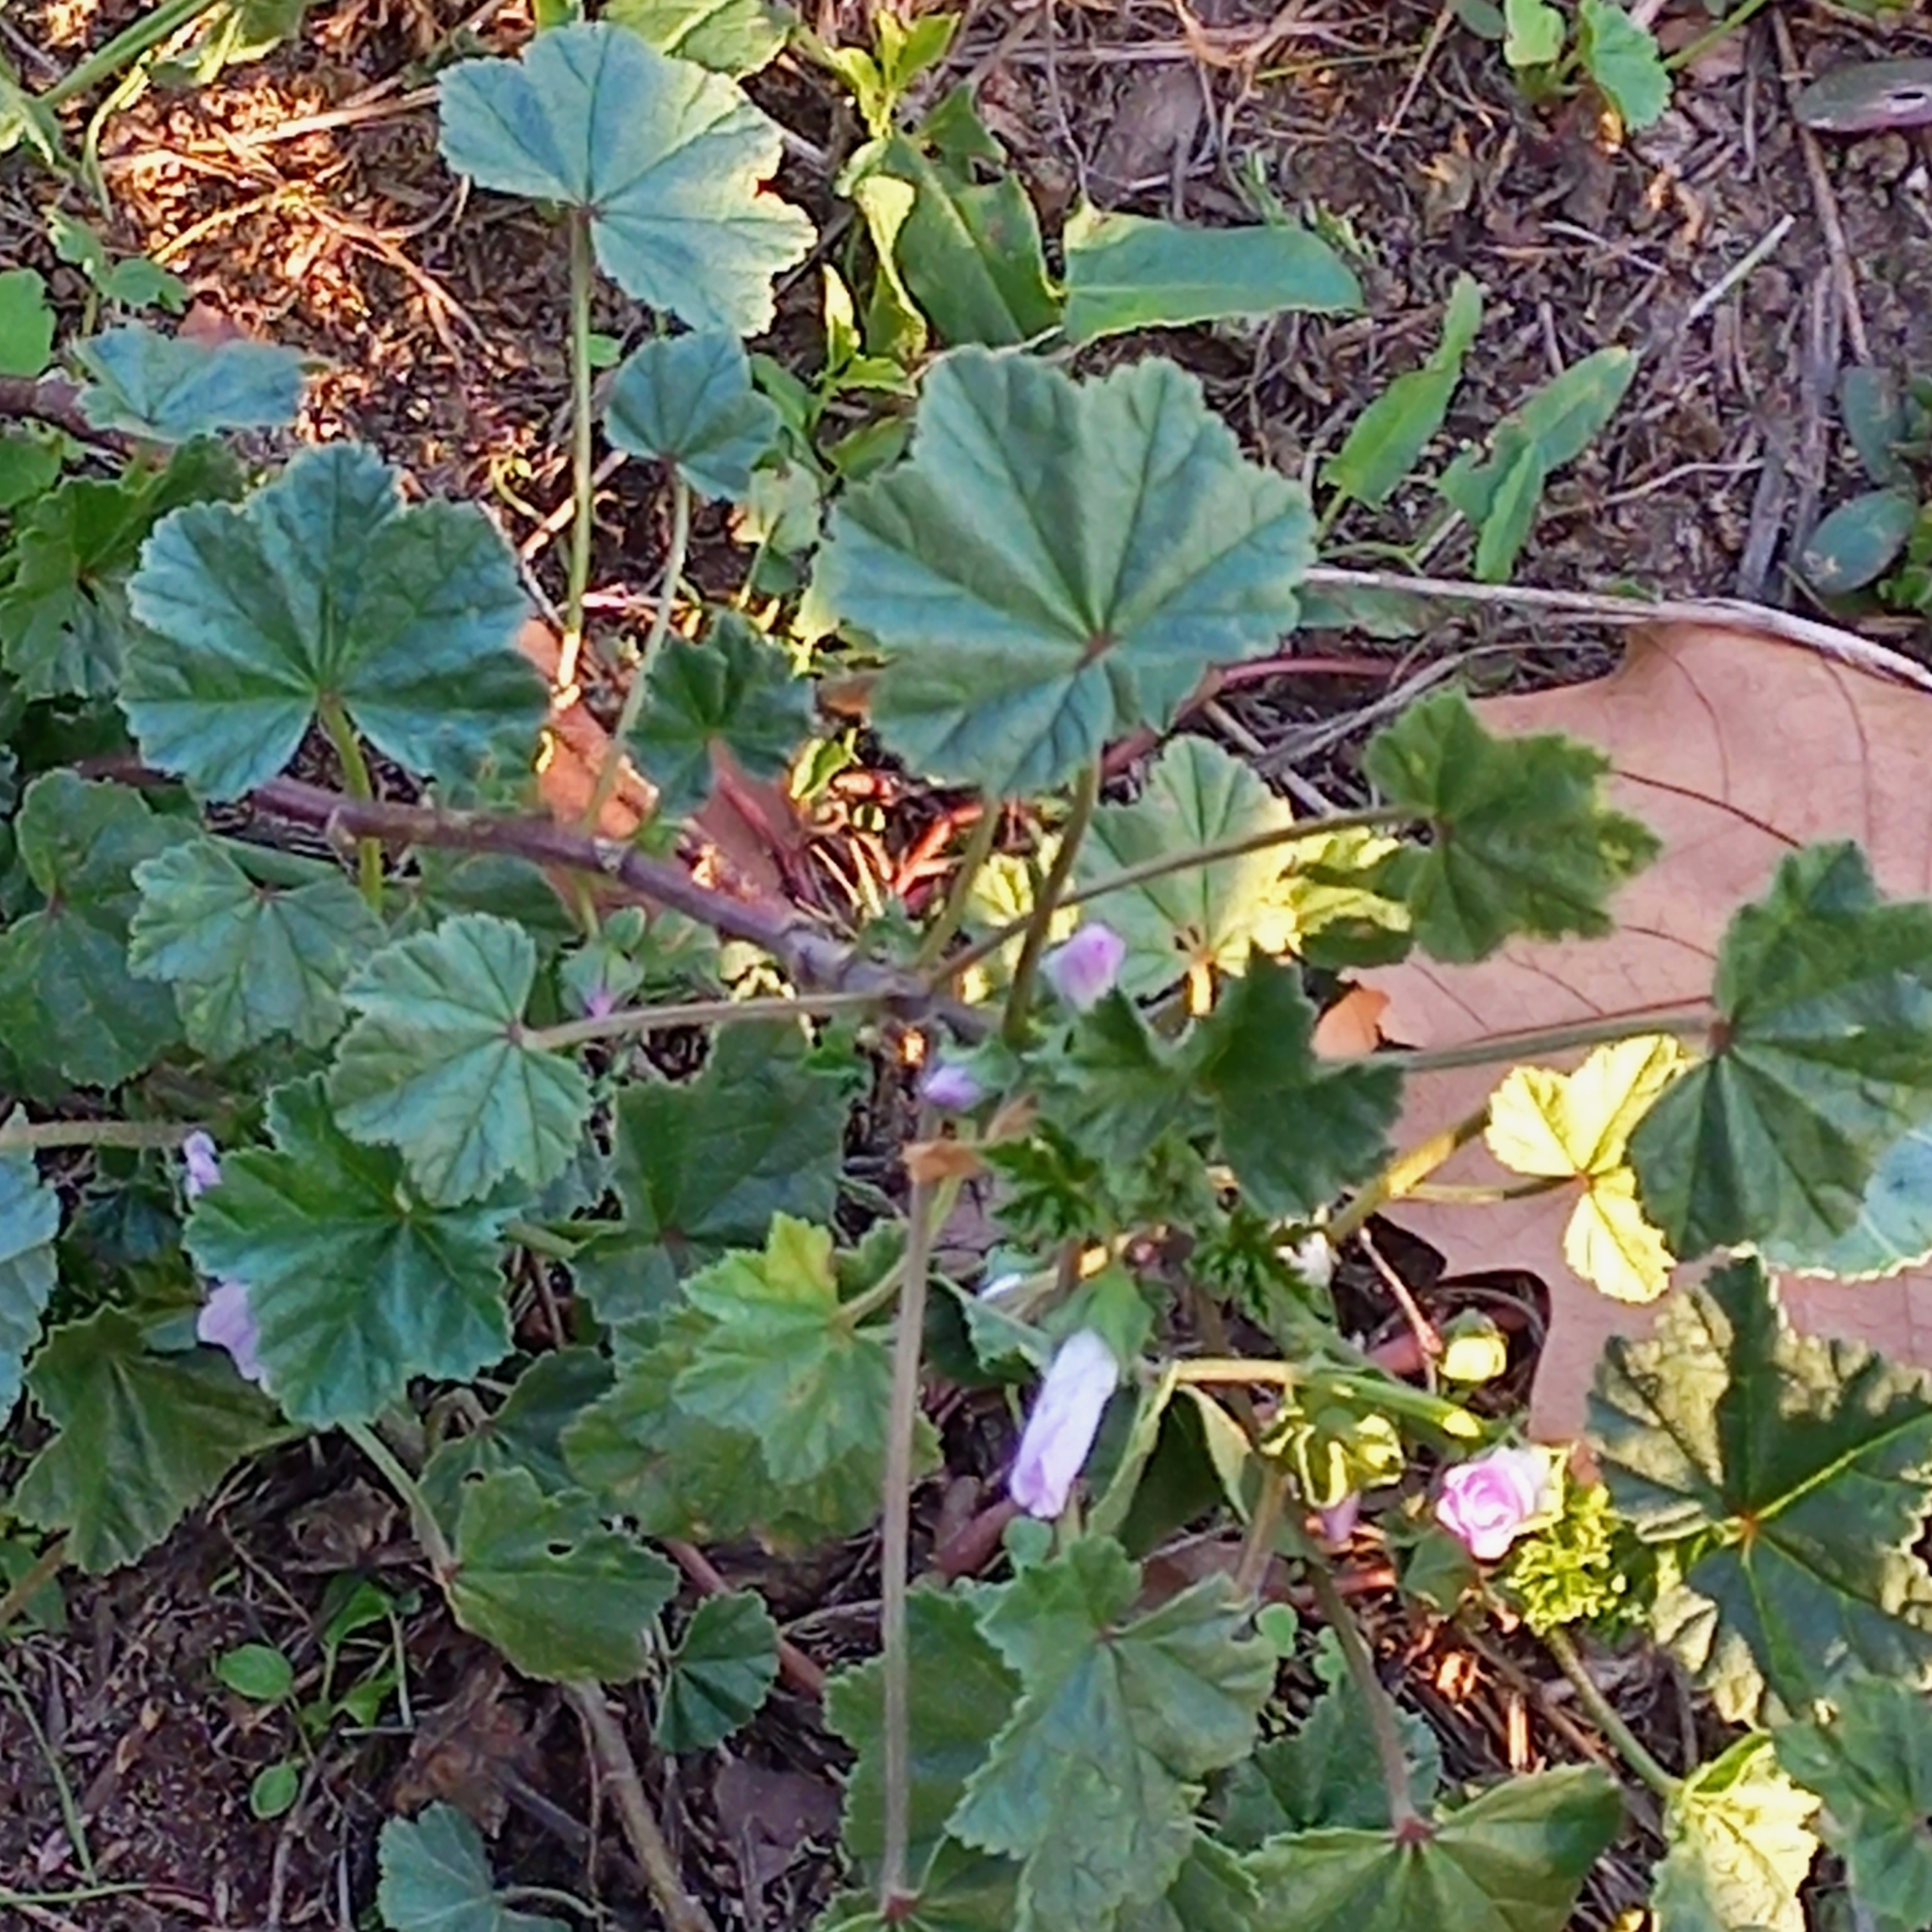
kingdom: Plantae
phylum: Tracheophyta
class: Magnoliopsida
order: Malvales
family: Malvaceae
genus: Malva
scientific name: Malva neglecta
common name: Common mallow
